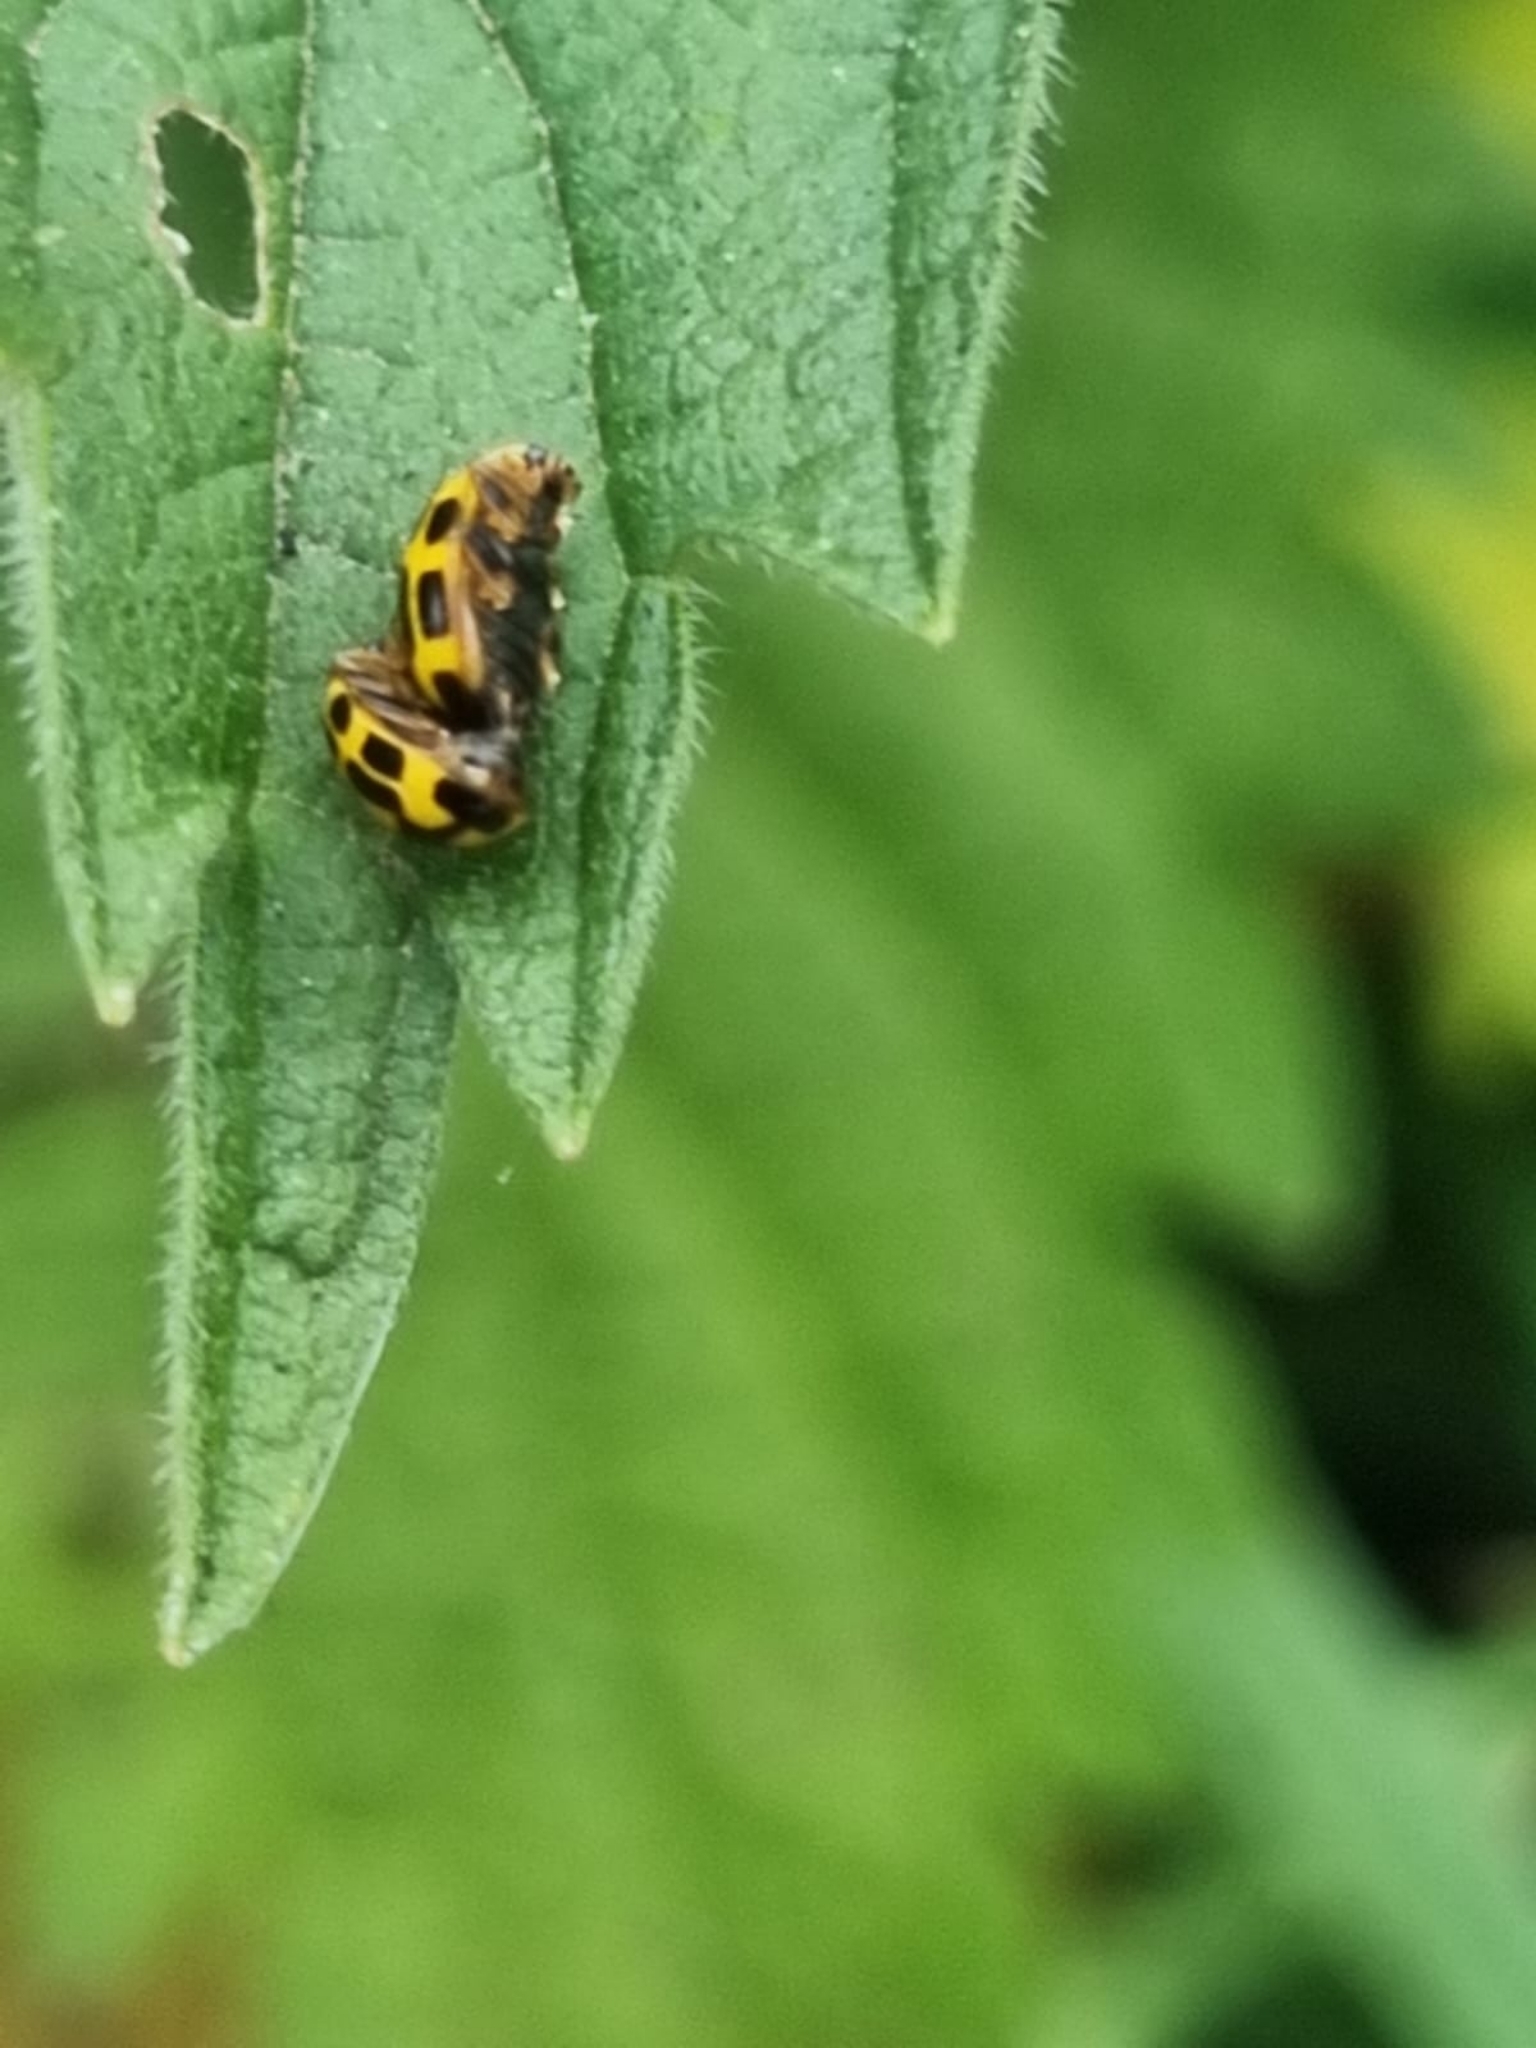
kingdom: Animalia
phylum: Arthropoda
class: Insecta
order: Coleoptera
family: Coccinellidae
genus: Propylaea
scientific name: Propylaea quatuordecimpunctata
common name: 14-spotted ladybird beetle
